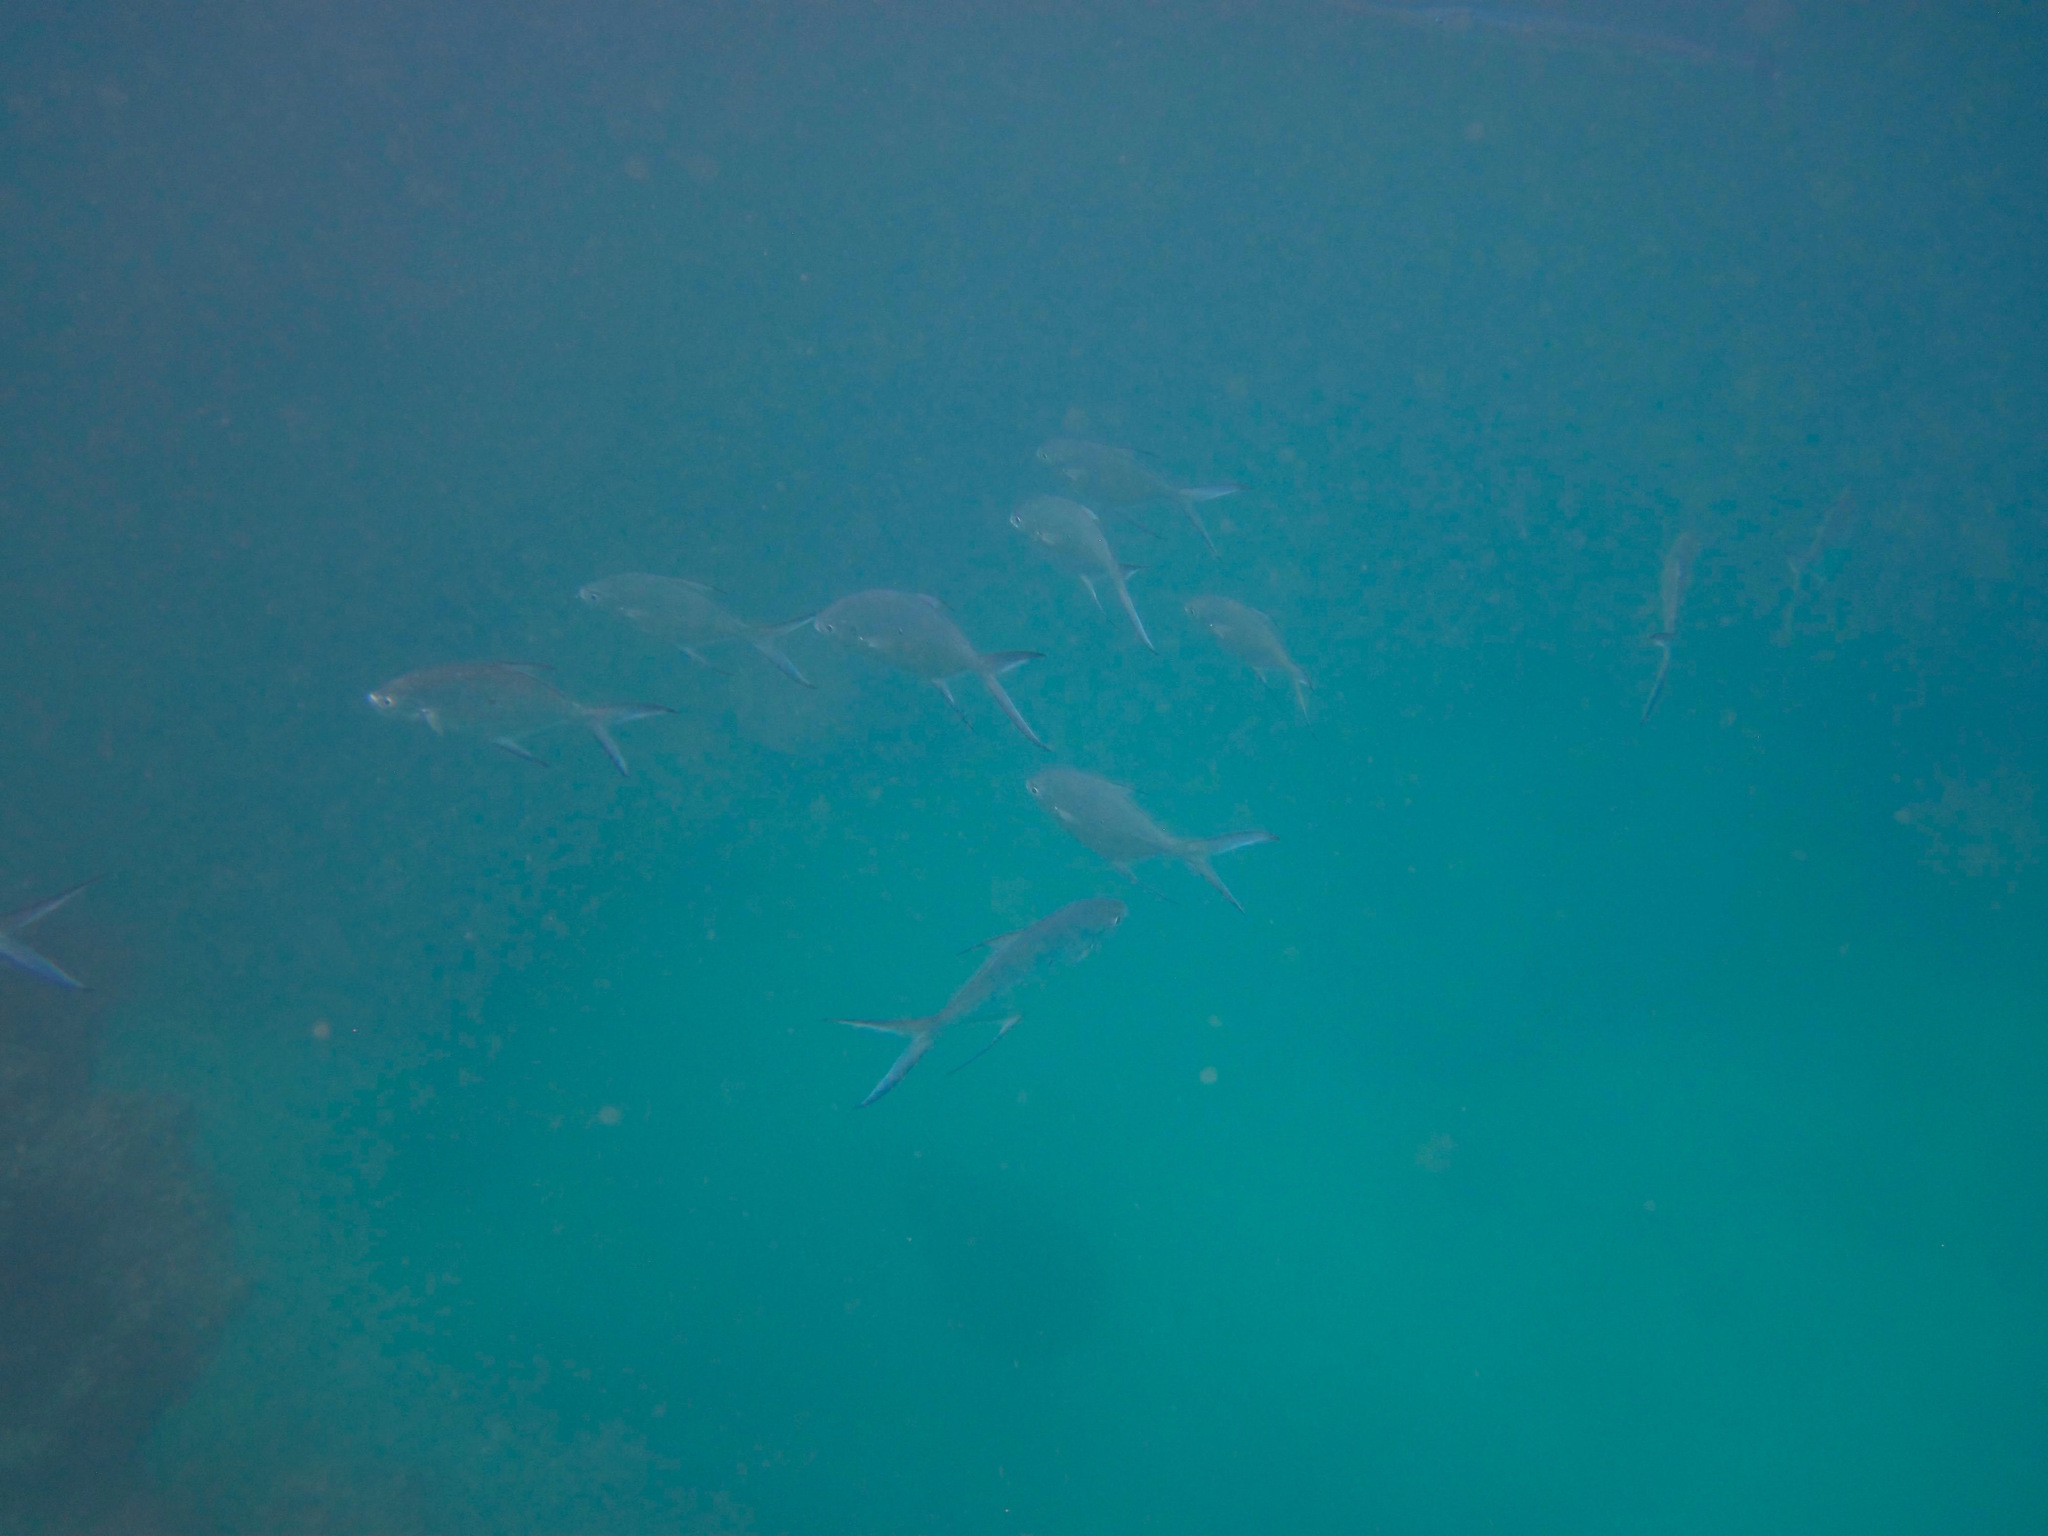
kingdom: Animalia
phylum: Chordata
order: Perciformes
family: Carangidae
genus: Trachinotus
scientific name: Trachinotus baillonii
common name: Smallspotted dart
